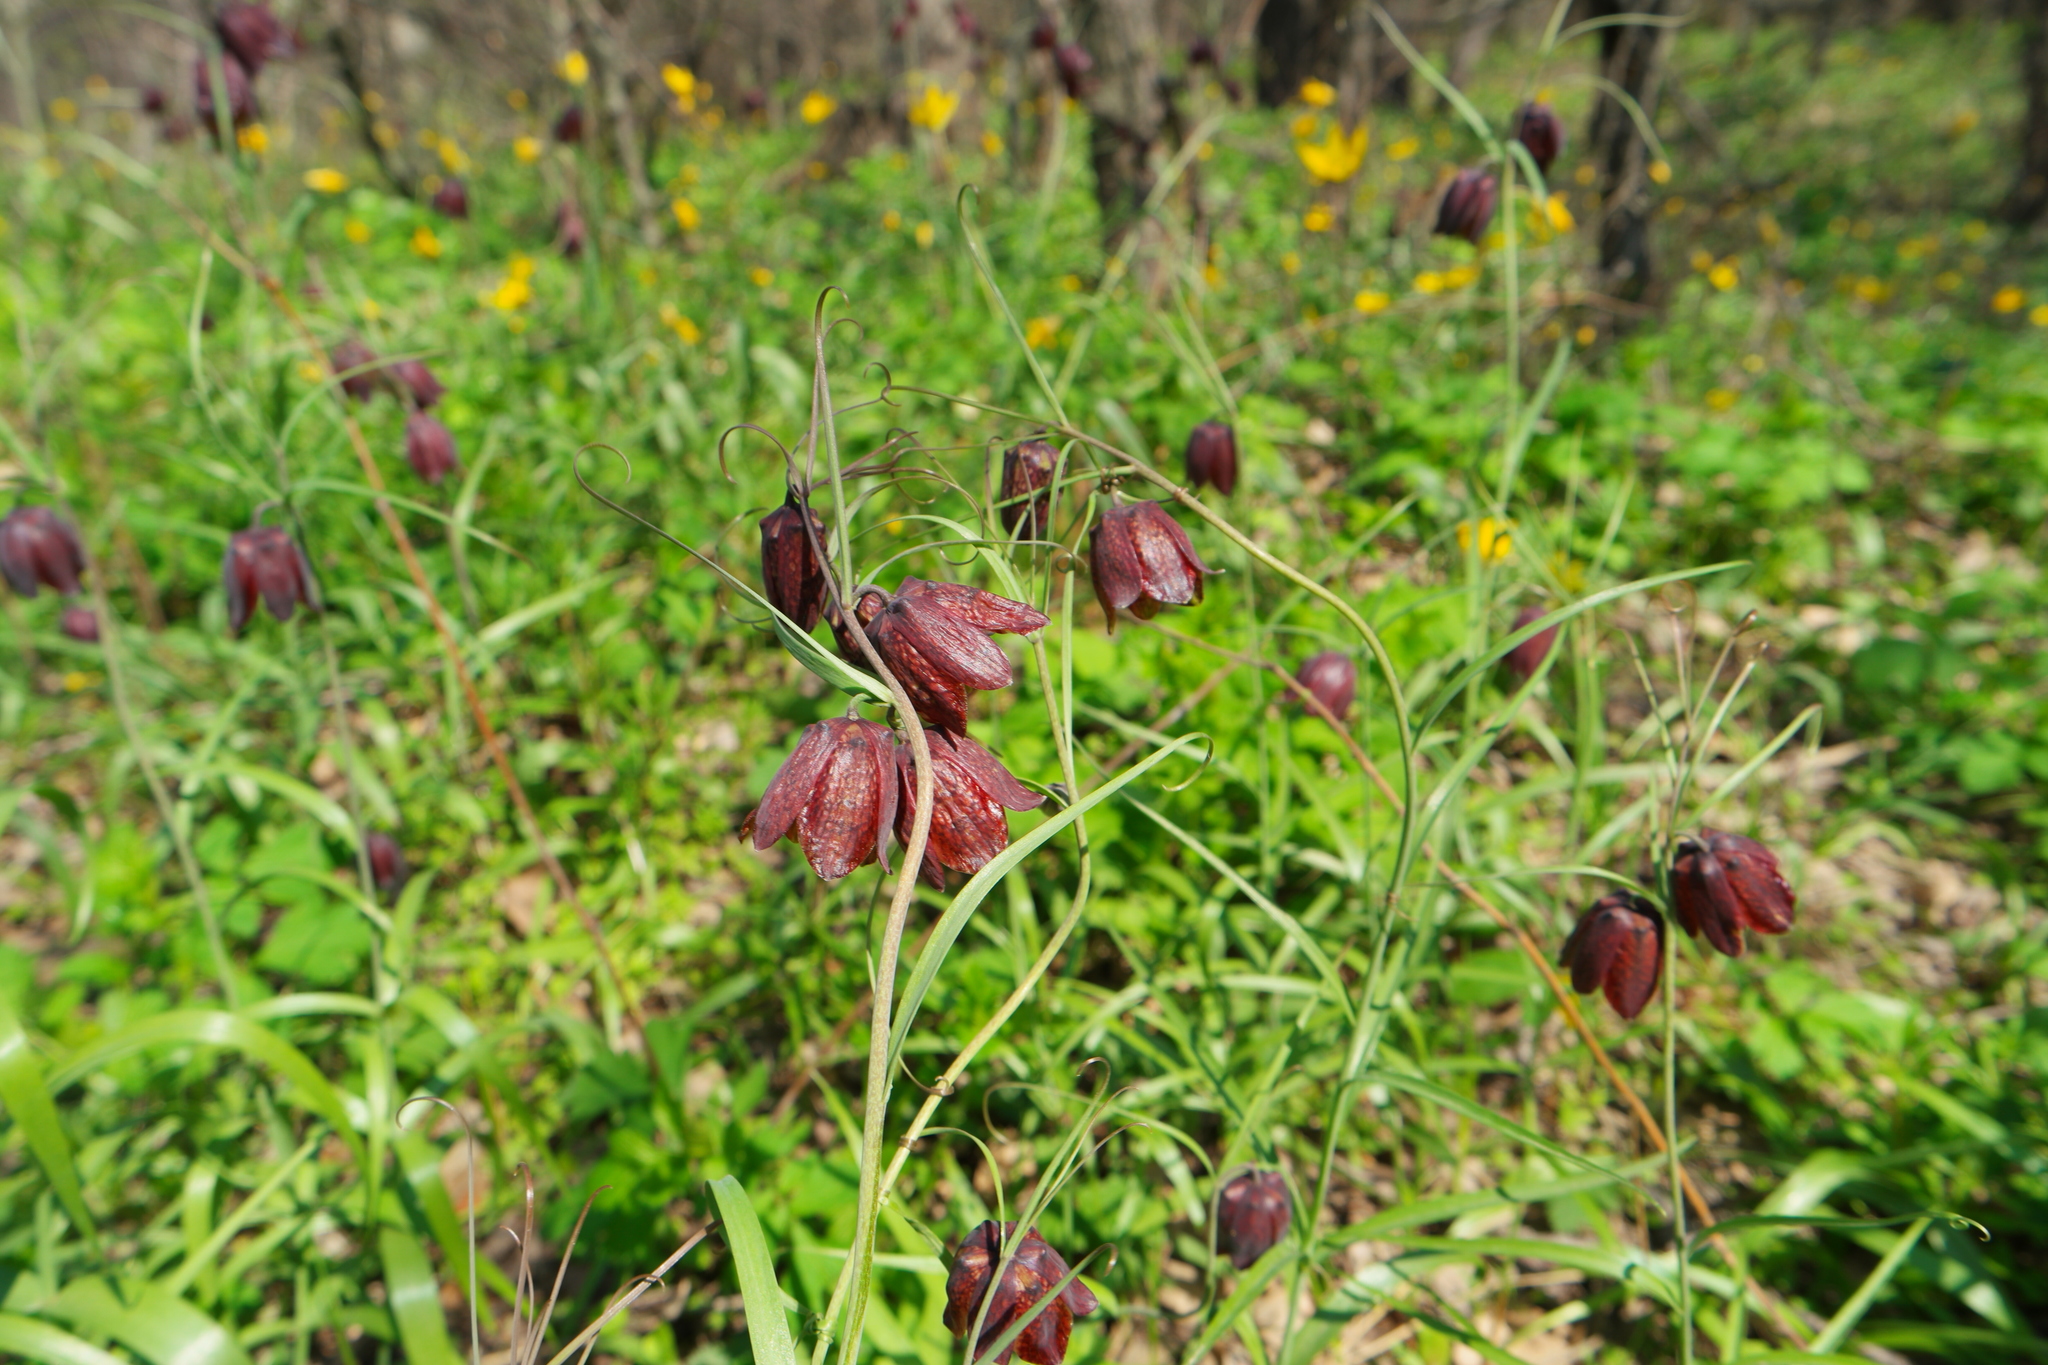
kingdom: Plantae
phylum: Tracheophyta
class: Liliopsida
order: Liliales
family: Liliaceae
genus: Fritillaria
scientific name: Fritillaria ruthenica
